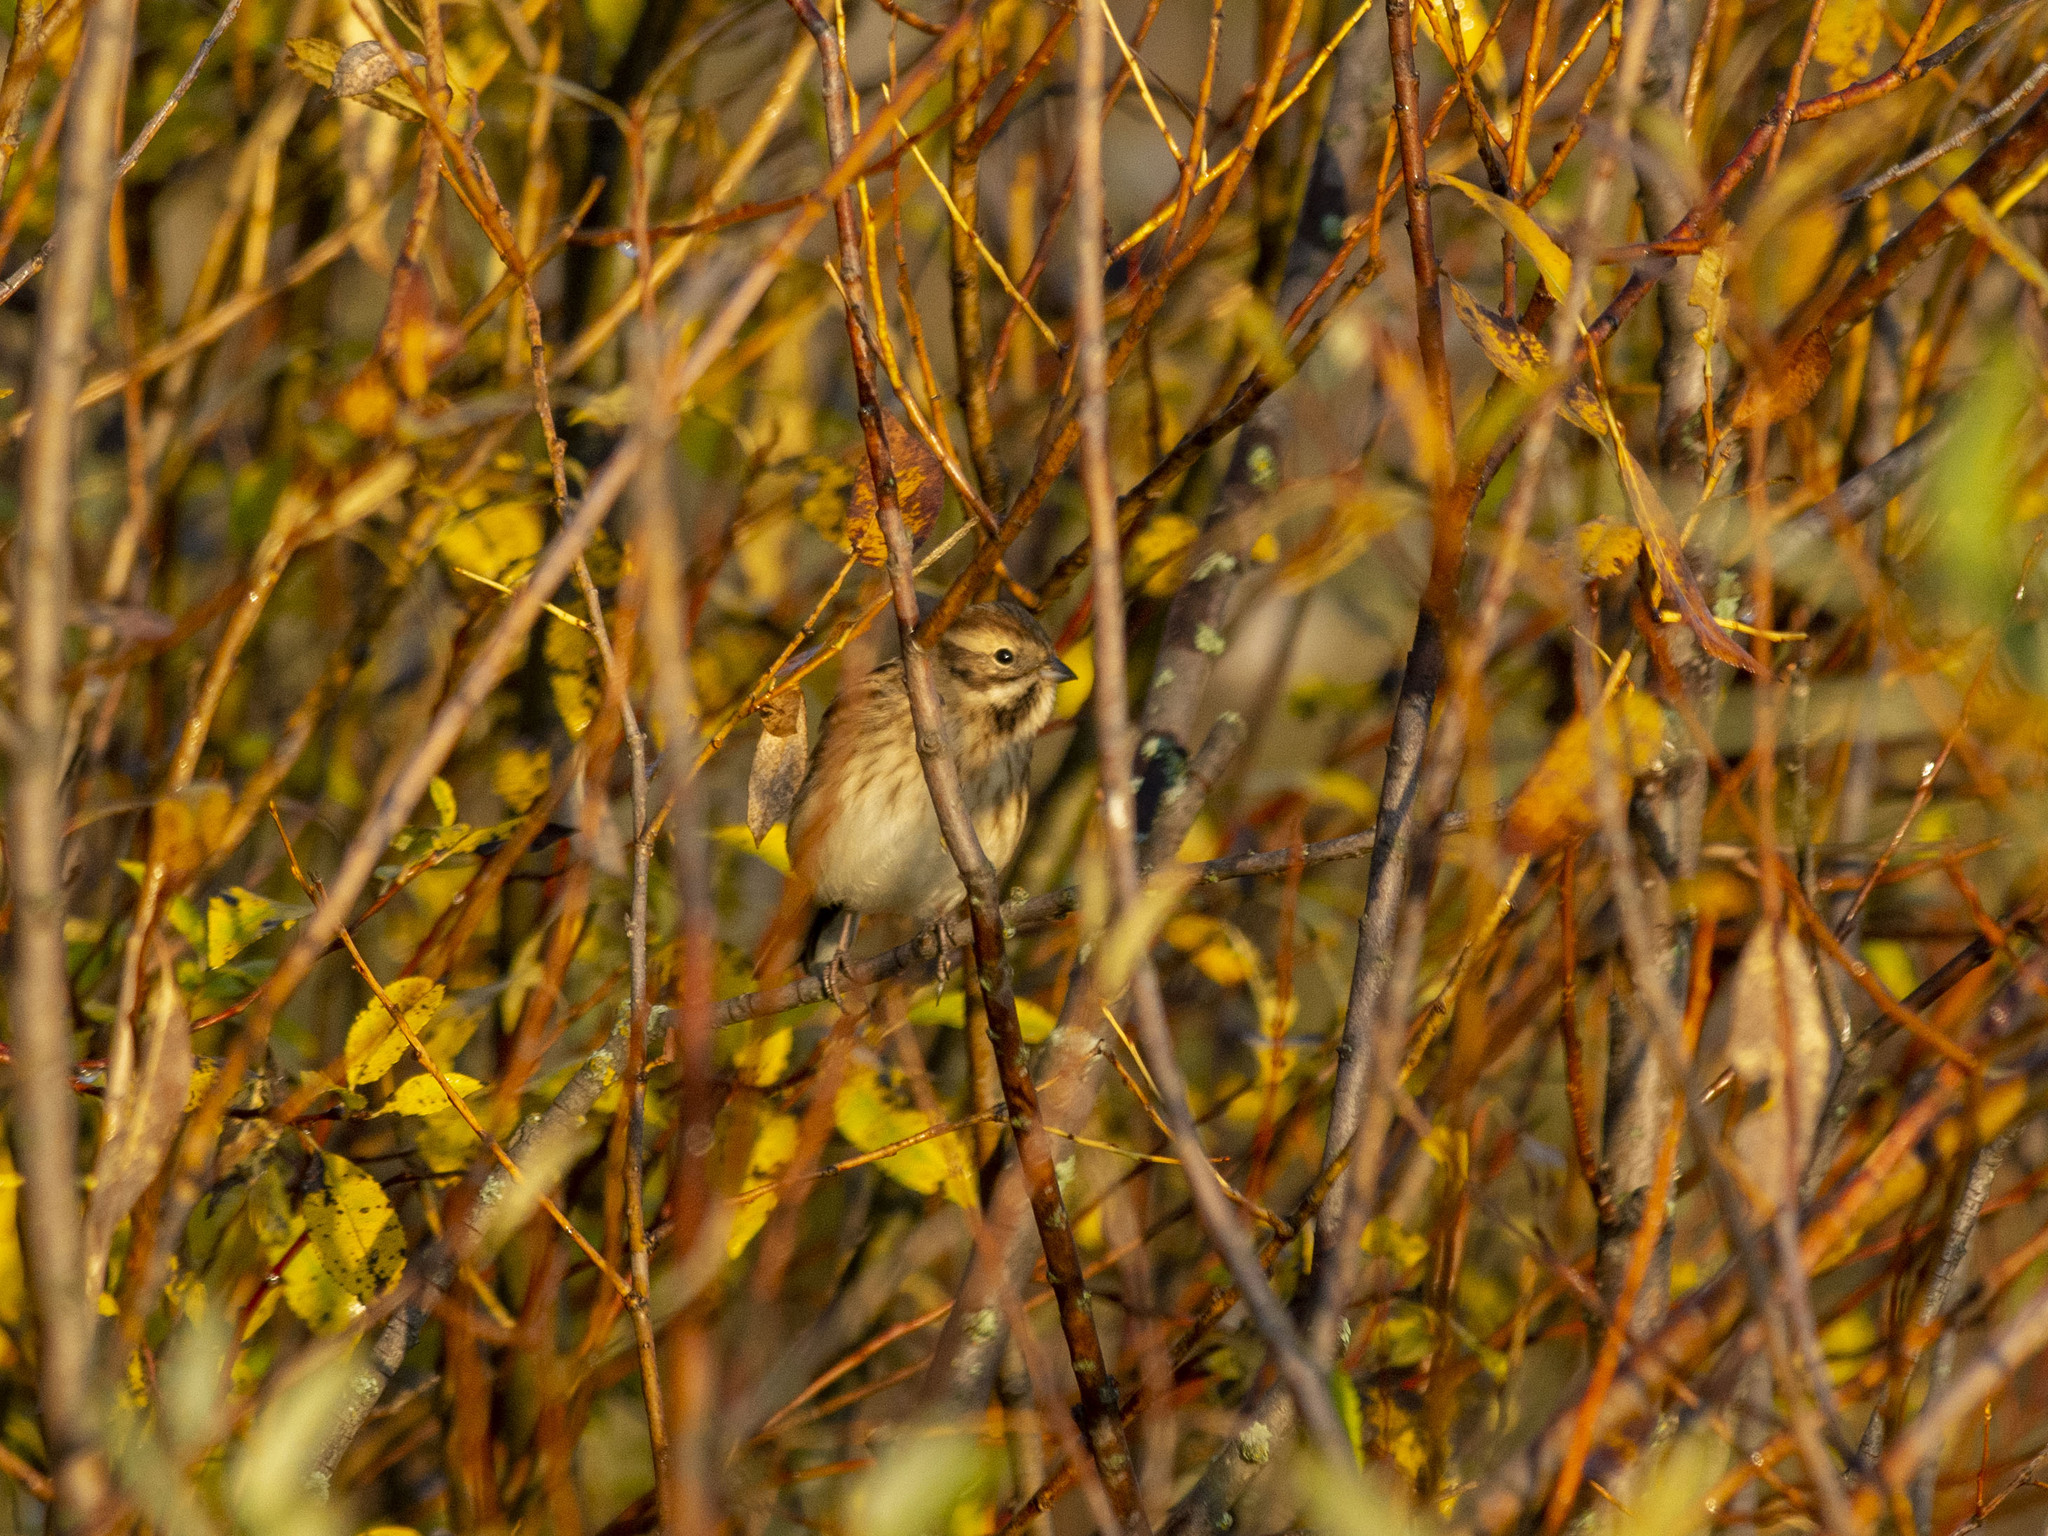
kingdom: Animalia
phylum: Chordata
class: Aves
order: Passeriformes
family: Emberizidae
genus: Emberiza
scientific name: Emberiza schoeniclus
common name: Reed bunting
